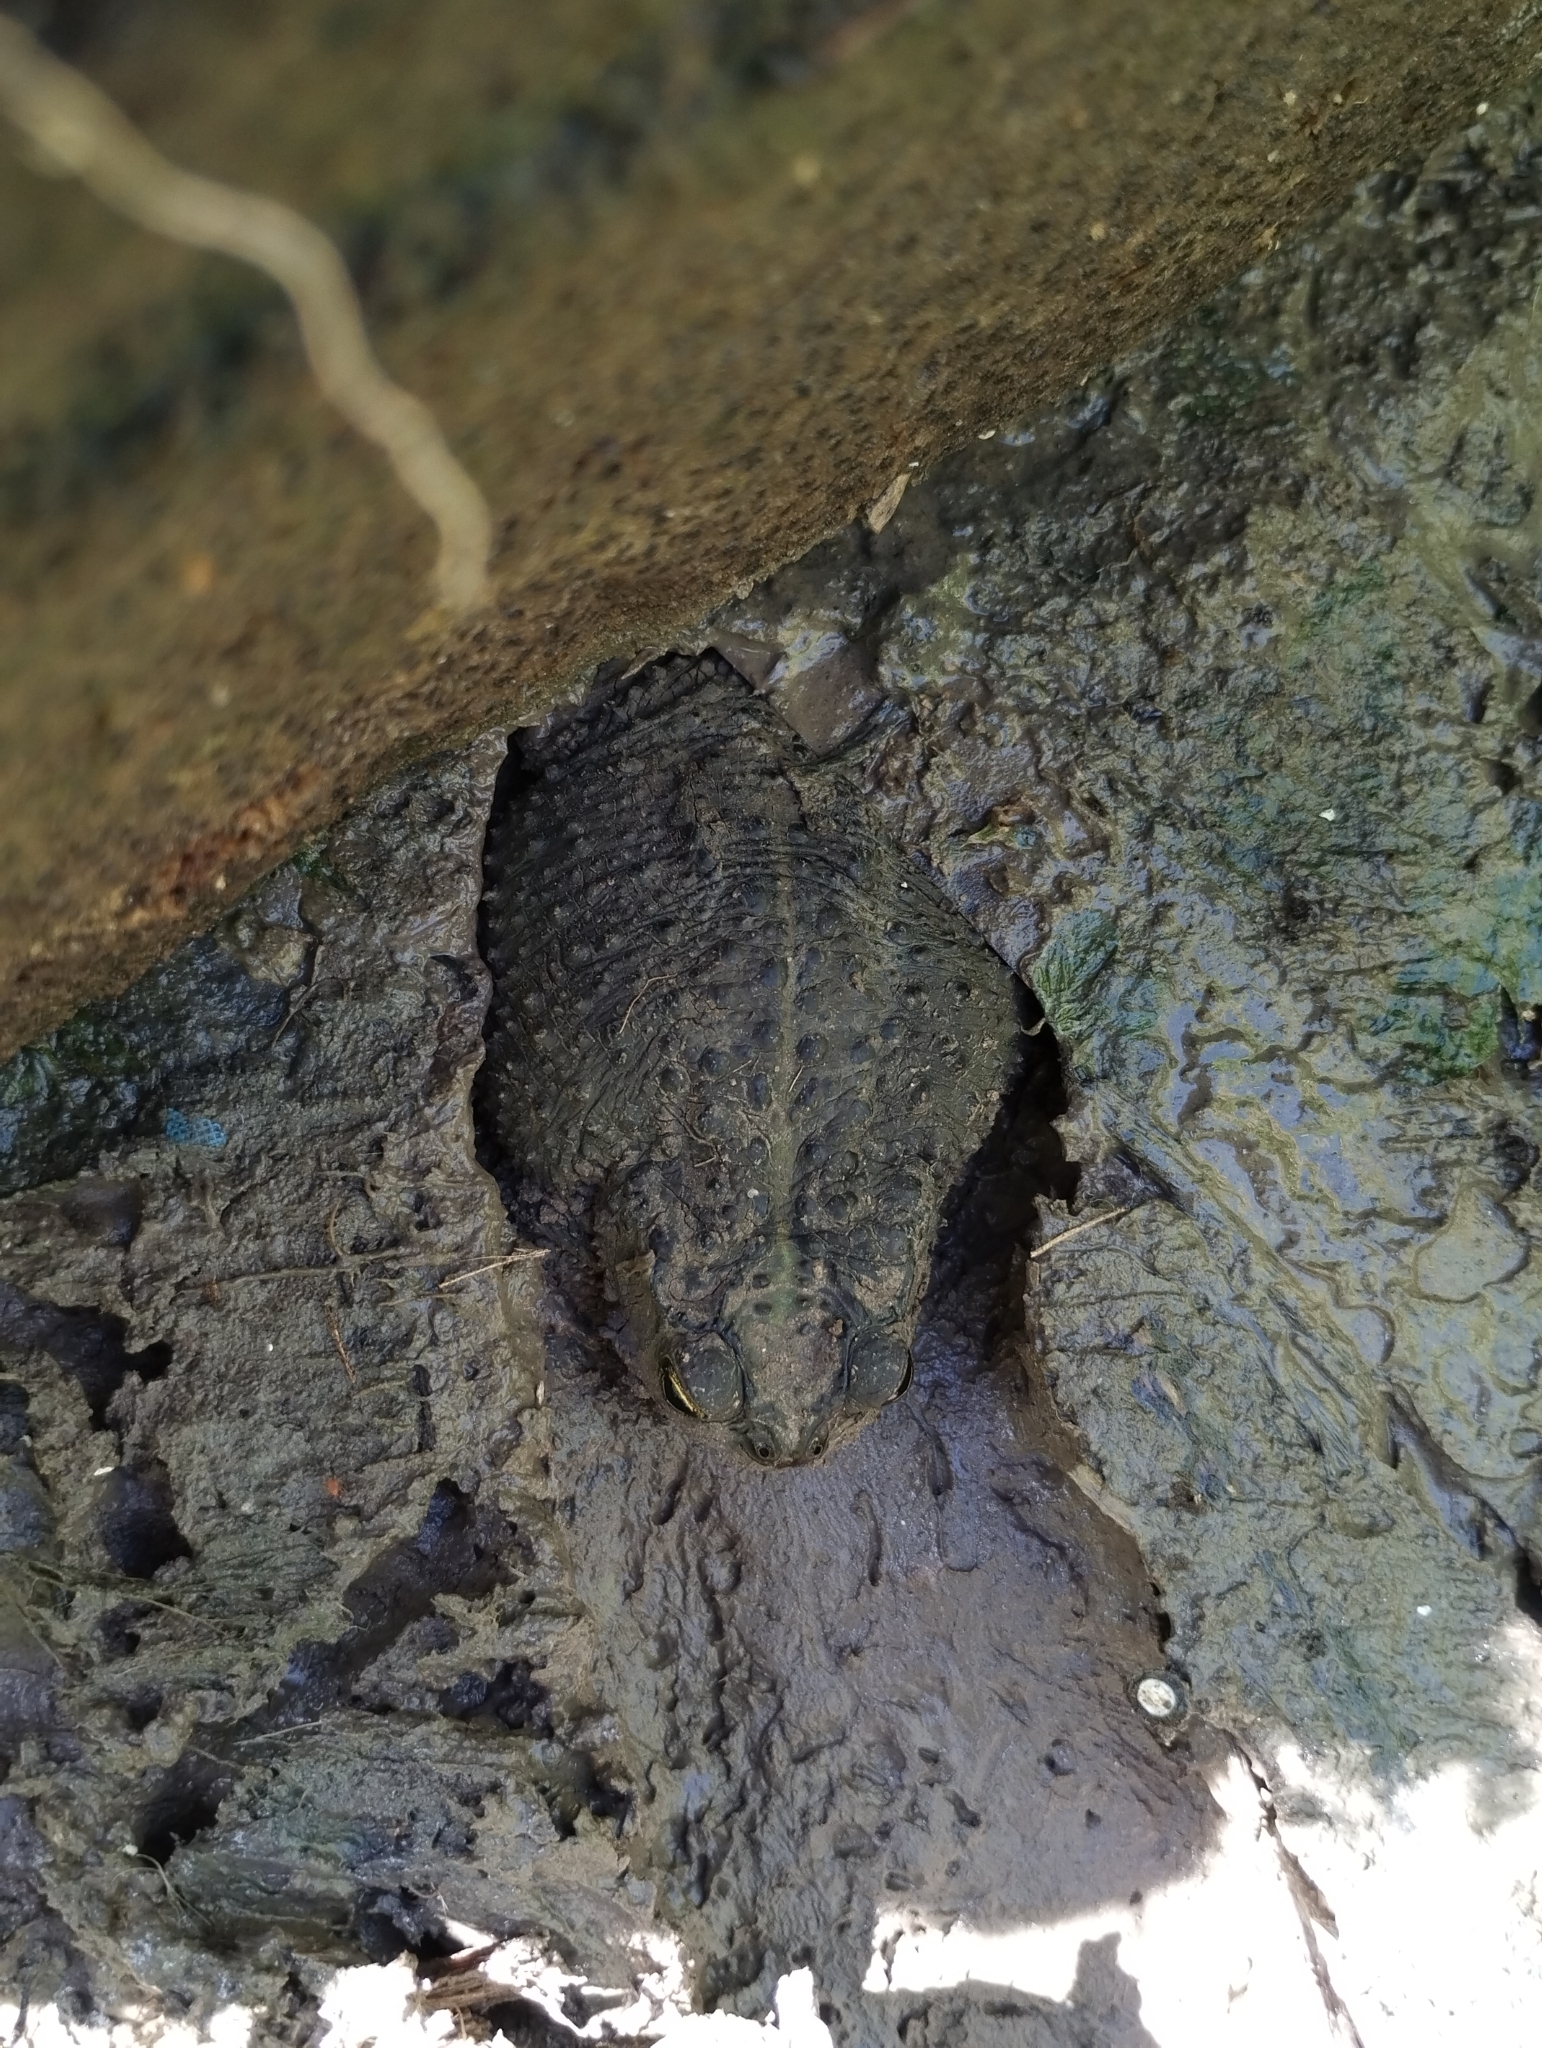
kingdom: Animalia
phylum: Chordata
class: Amphibia
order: Anura
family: Bufonidae
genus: Rhinella
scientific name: Rhinella dorbignyi
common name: D´orbigny’s toad
